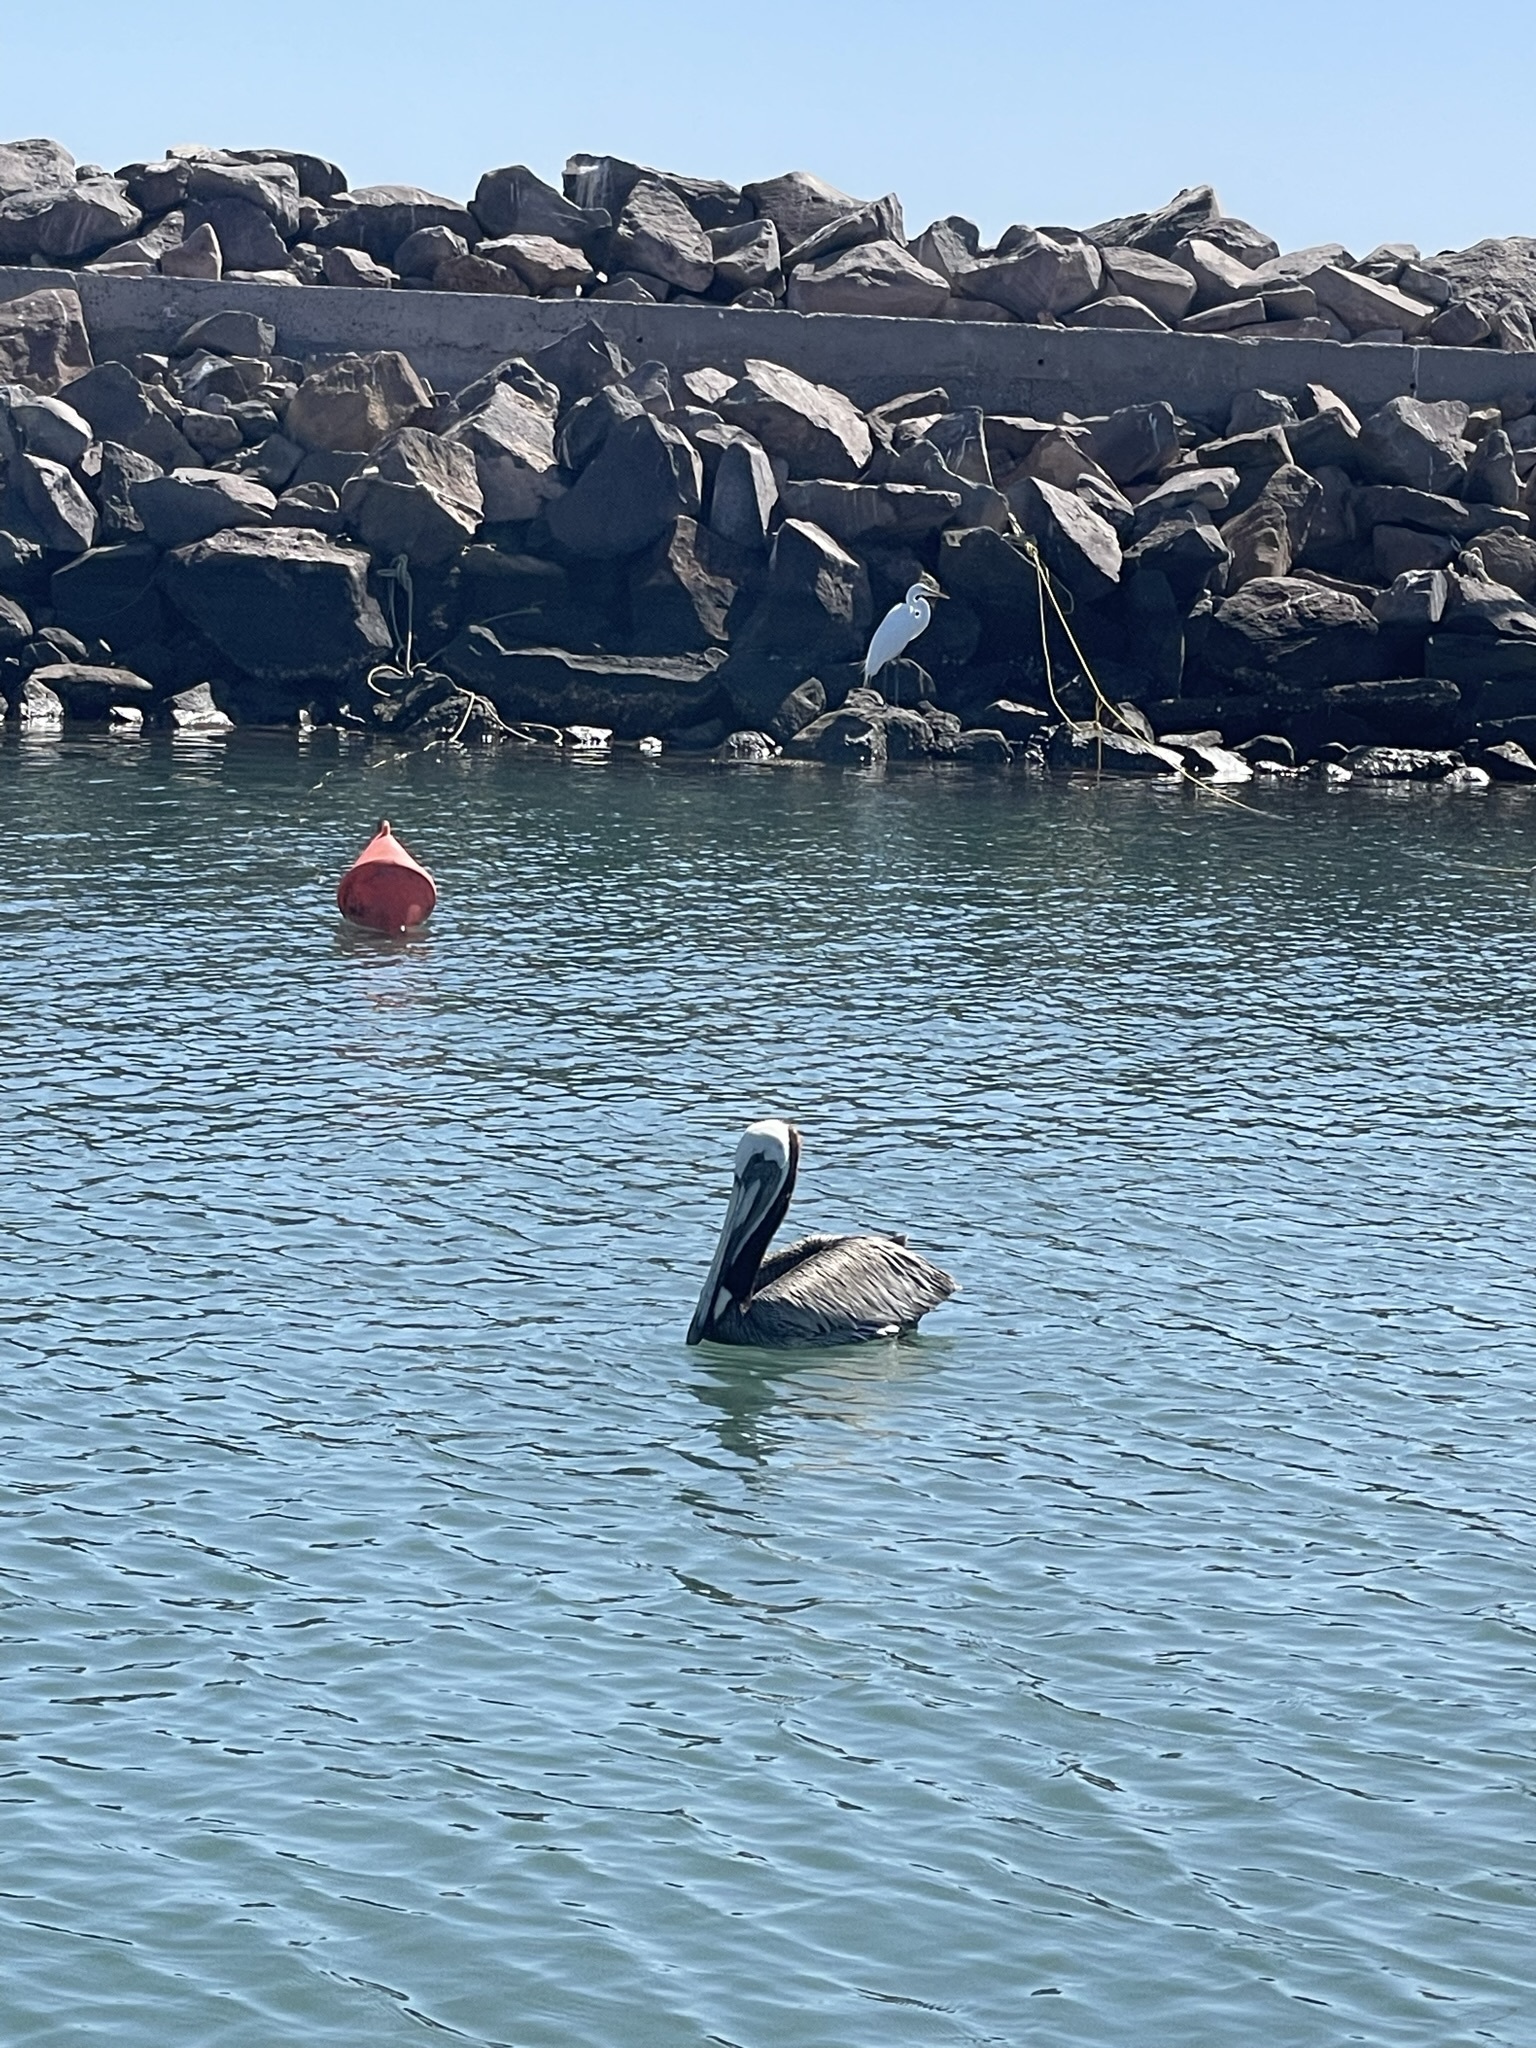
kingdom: Animalia
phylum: Chordata
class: Aves
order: Pelecaniformes
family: Pelecanidae
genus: Pelecanus
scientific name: Pelecanus occidentalis
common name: Brown pelican
